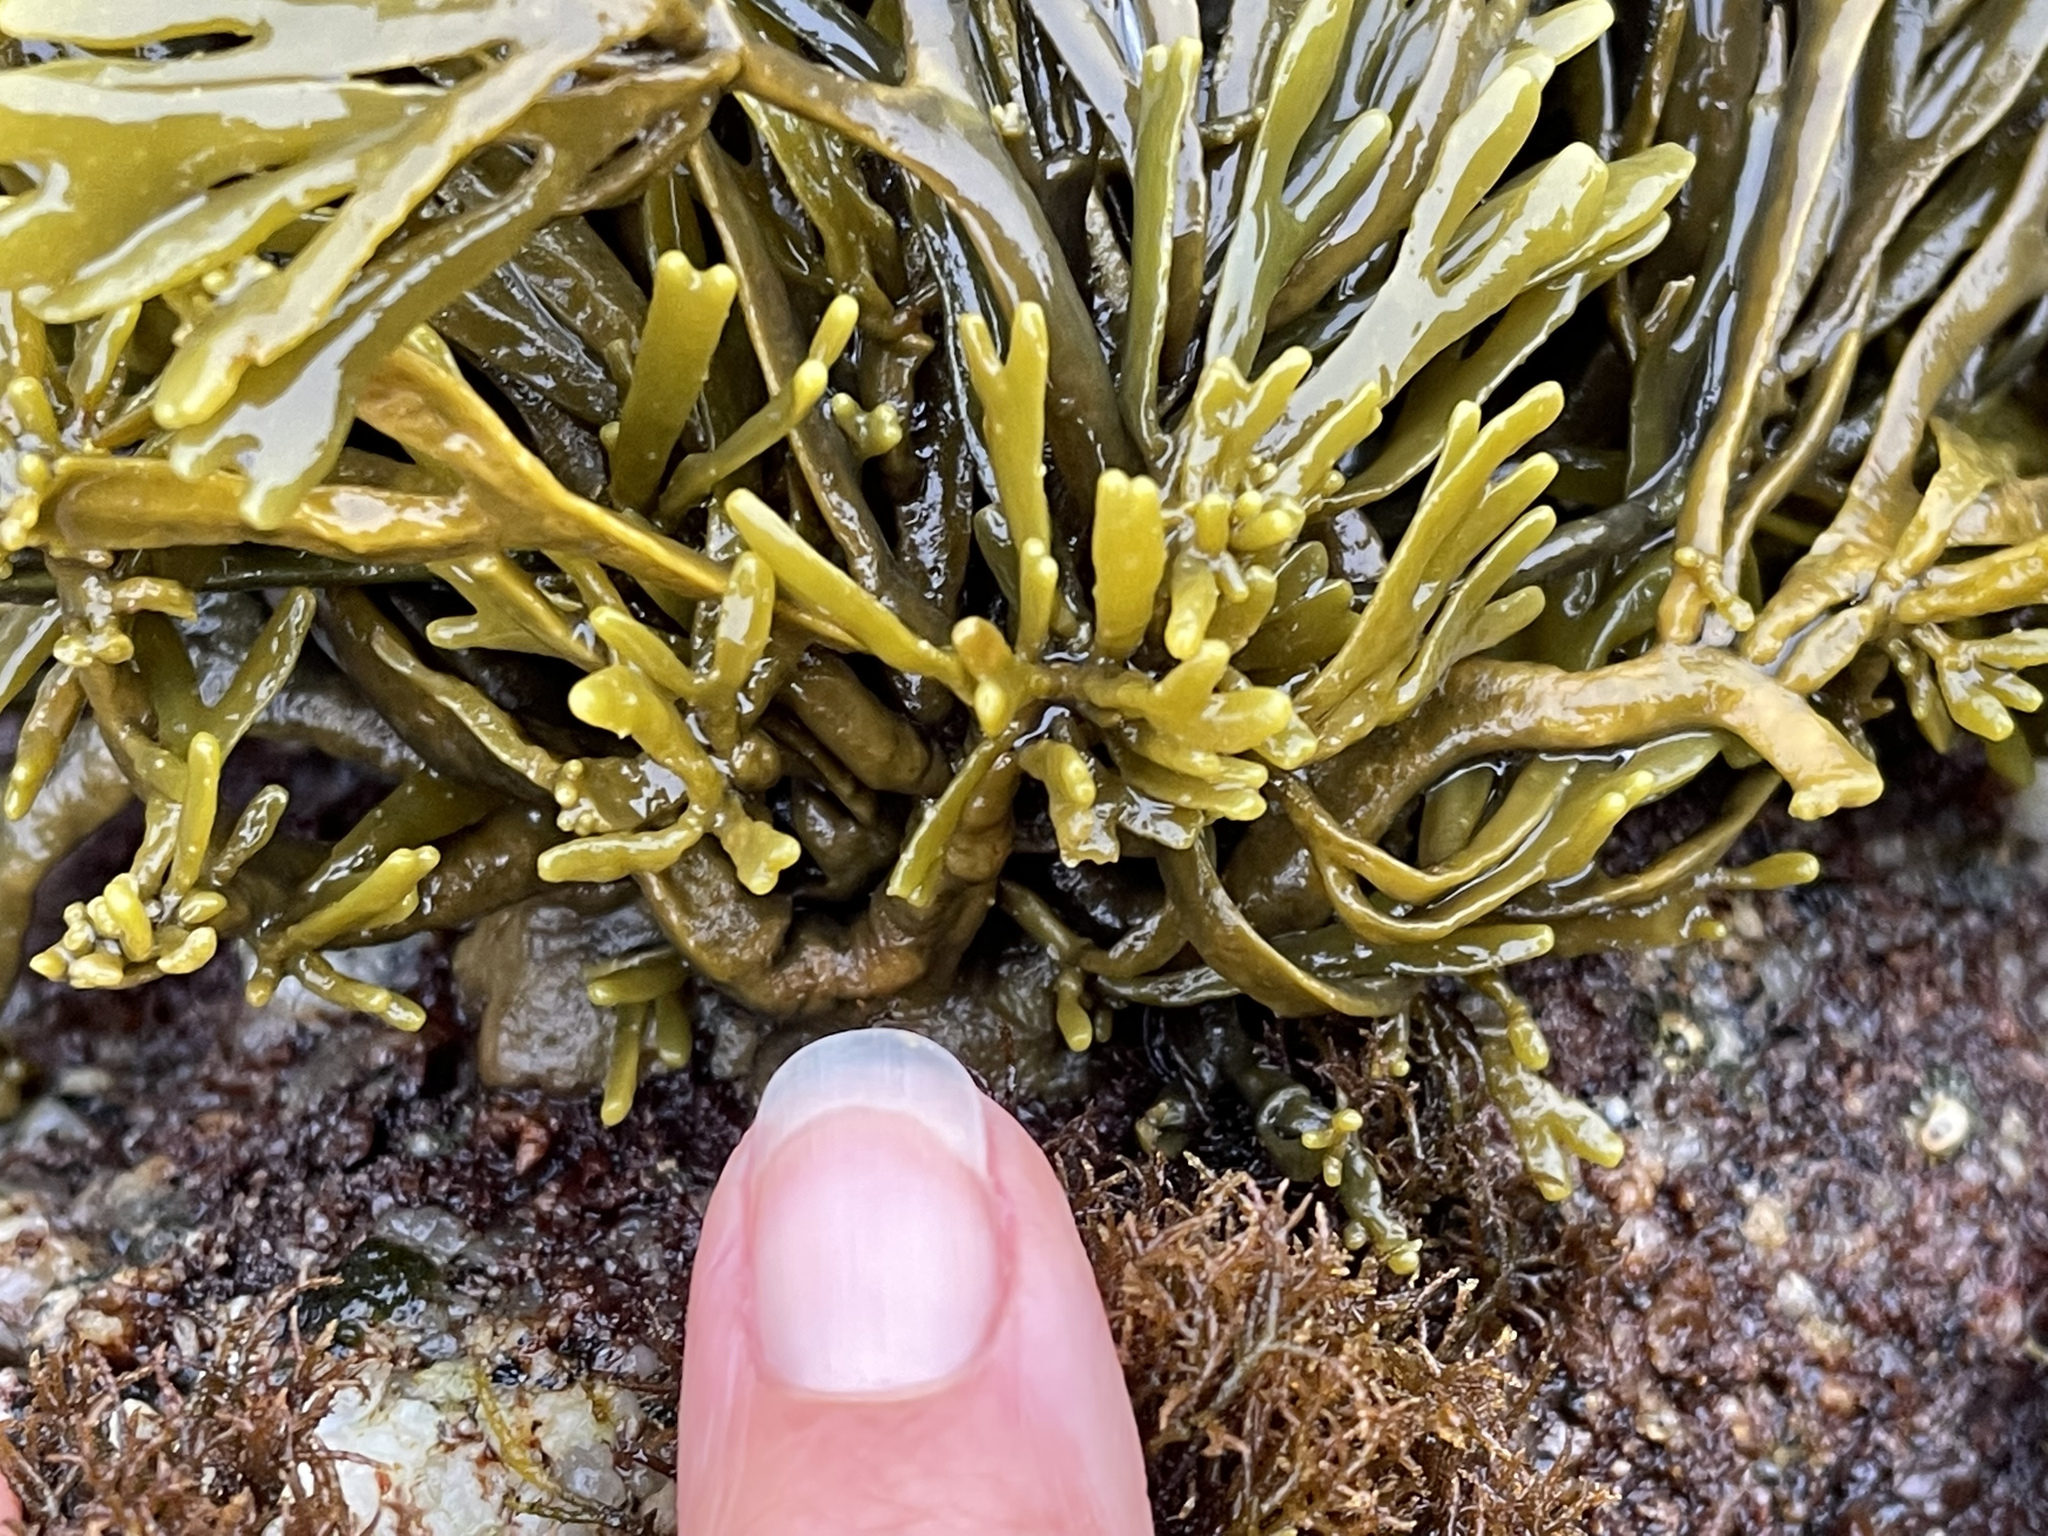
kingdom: Chromista
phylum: Ochrophyta
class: Phaeophyceae
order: Fucales
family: Fucaceae
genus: Silvetia
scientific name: Silvetia
